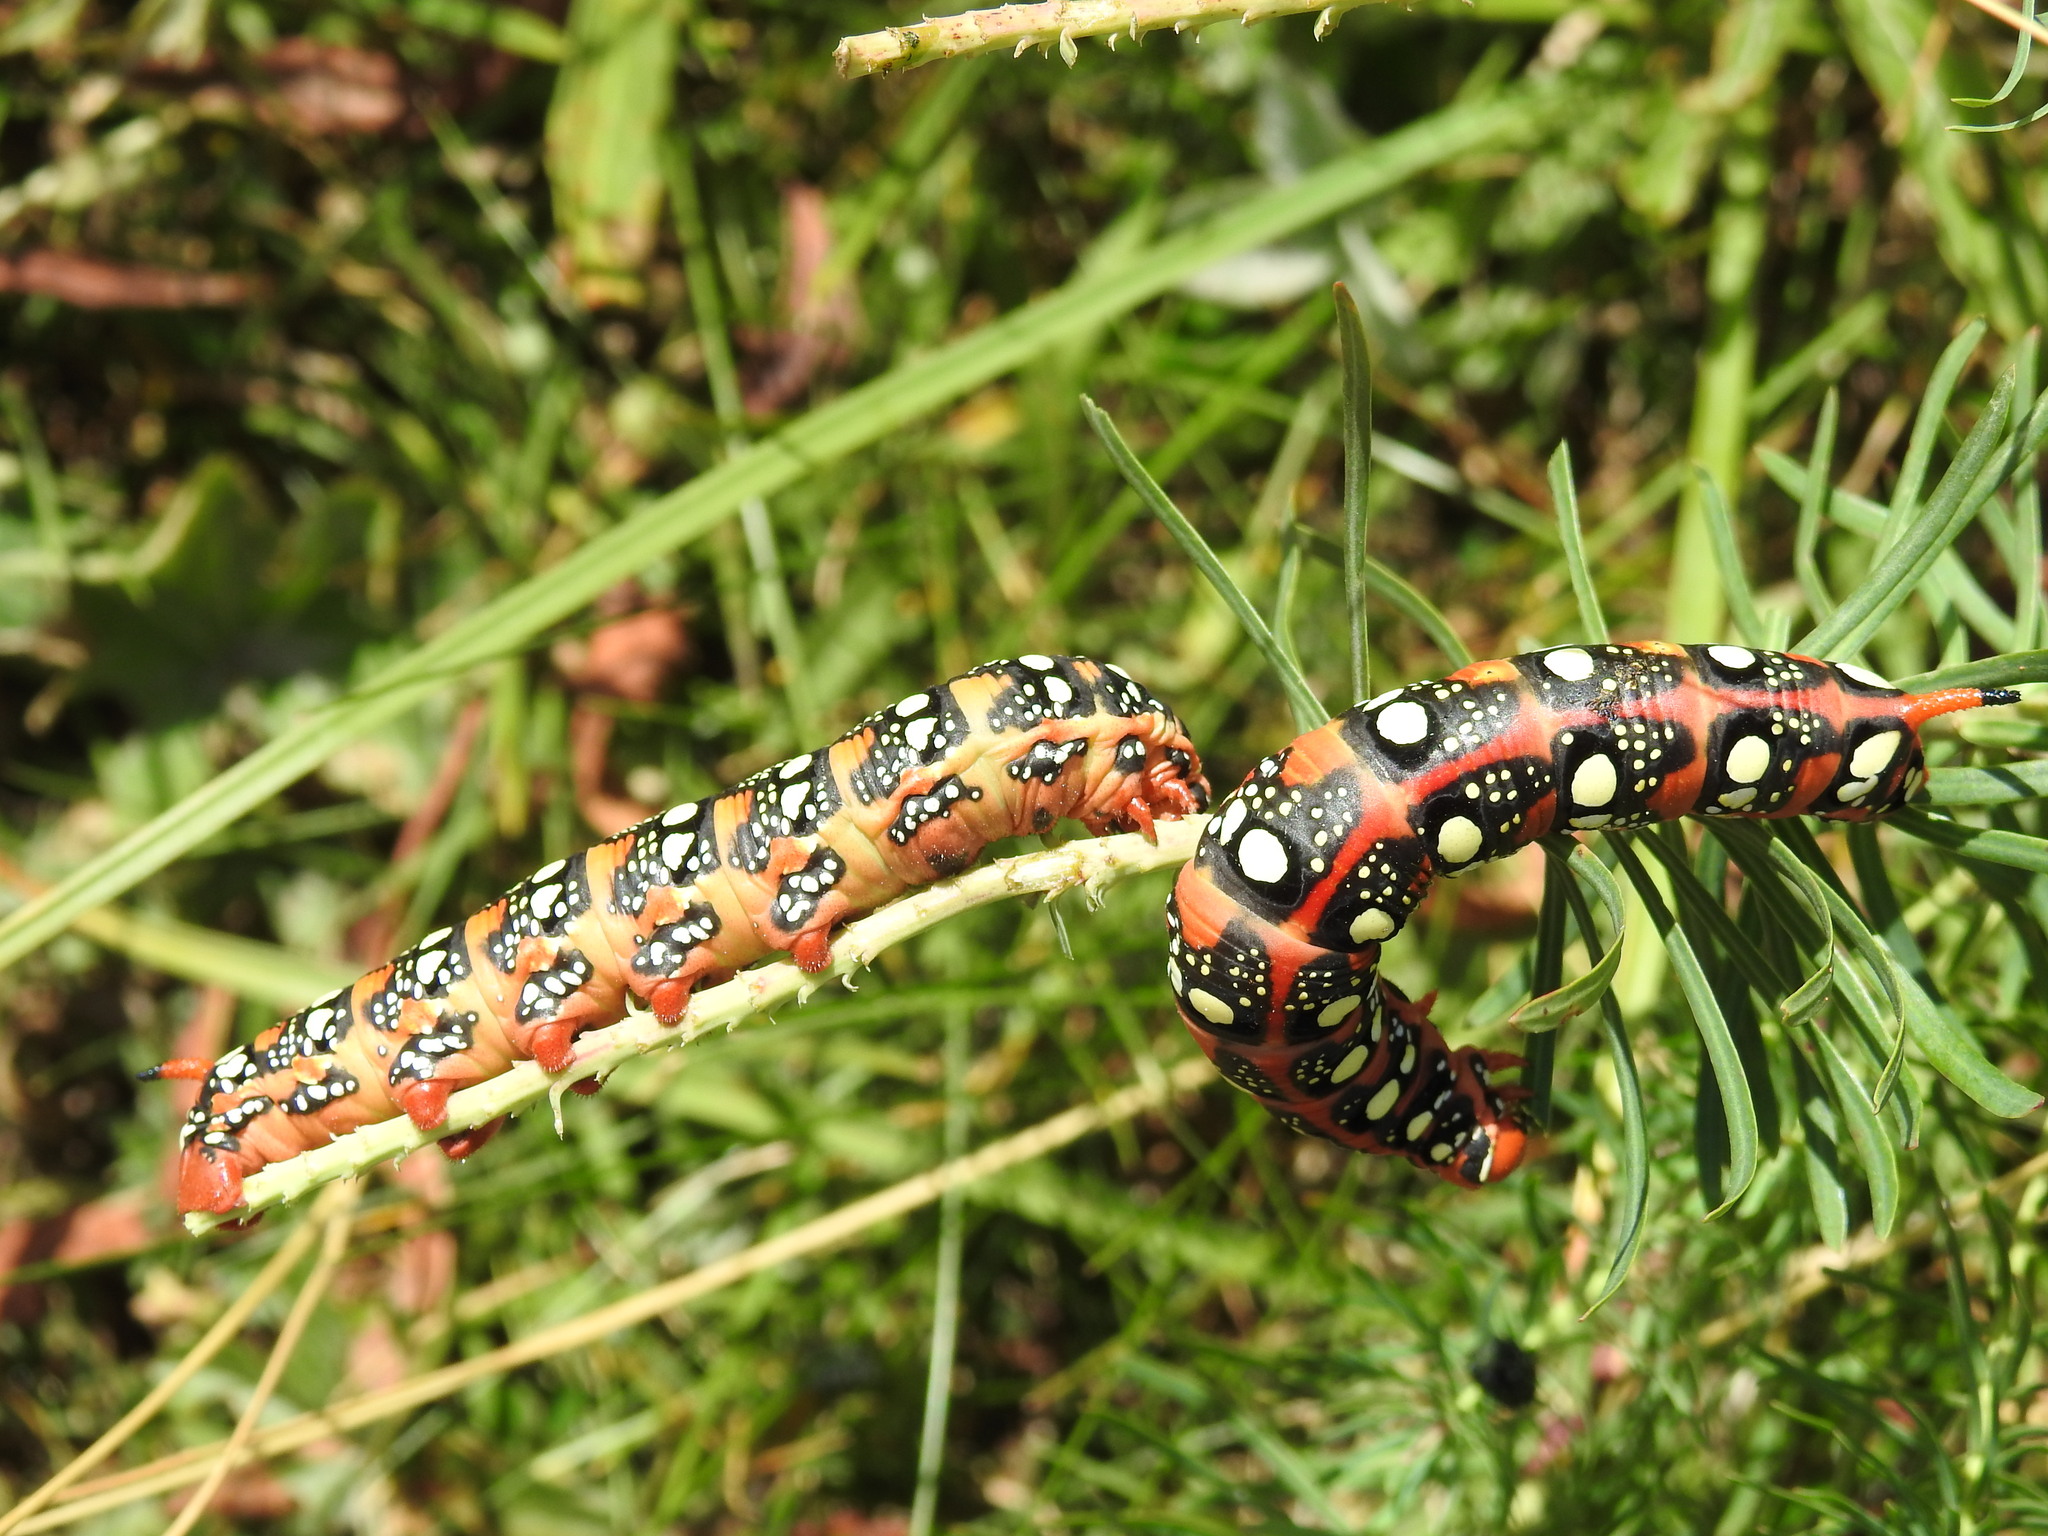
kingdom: Animalia
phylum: Arthropoda
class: Insecta
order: Lepidoptera
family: Sphingidae
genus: Hyles
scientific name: Hyles euphorbiae
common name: Spurge hawk-moth
